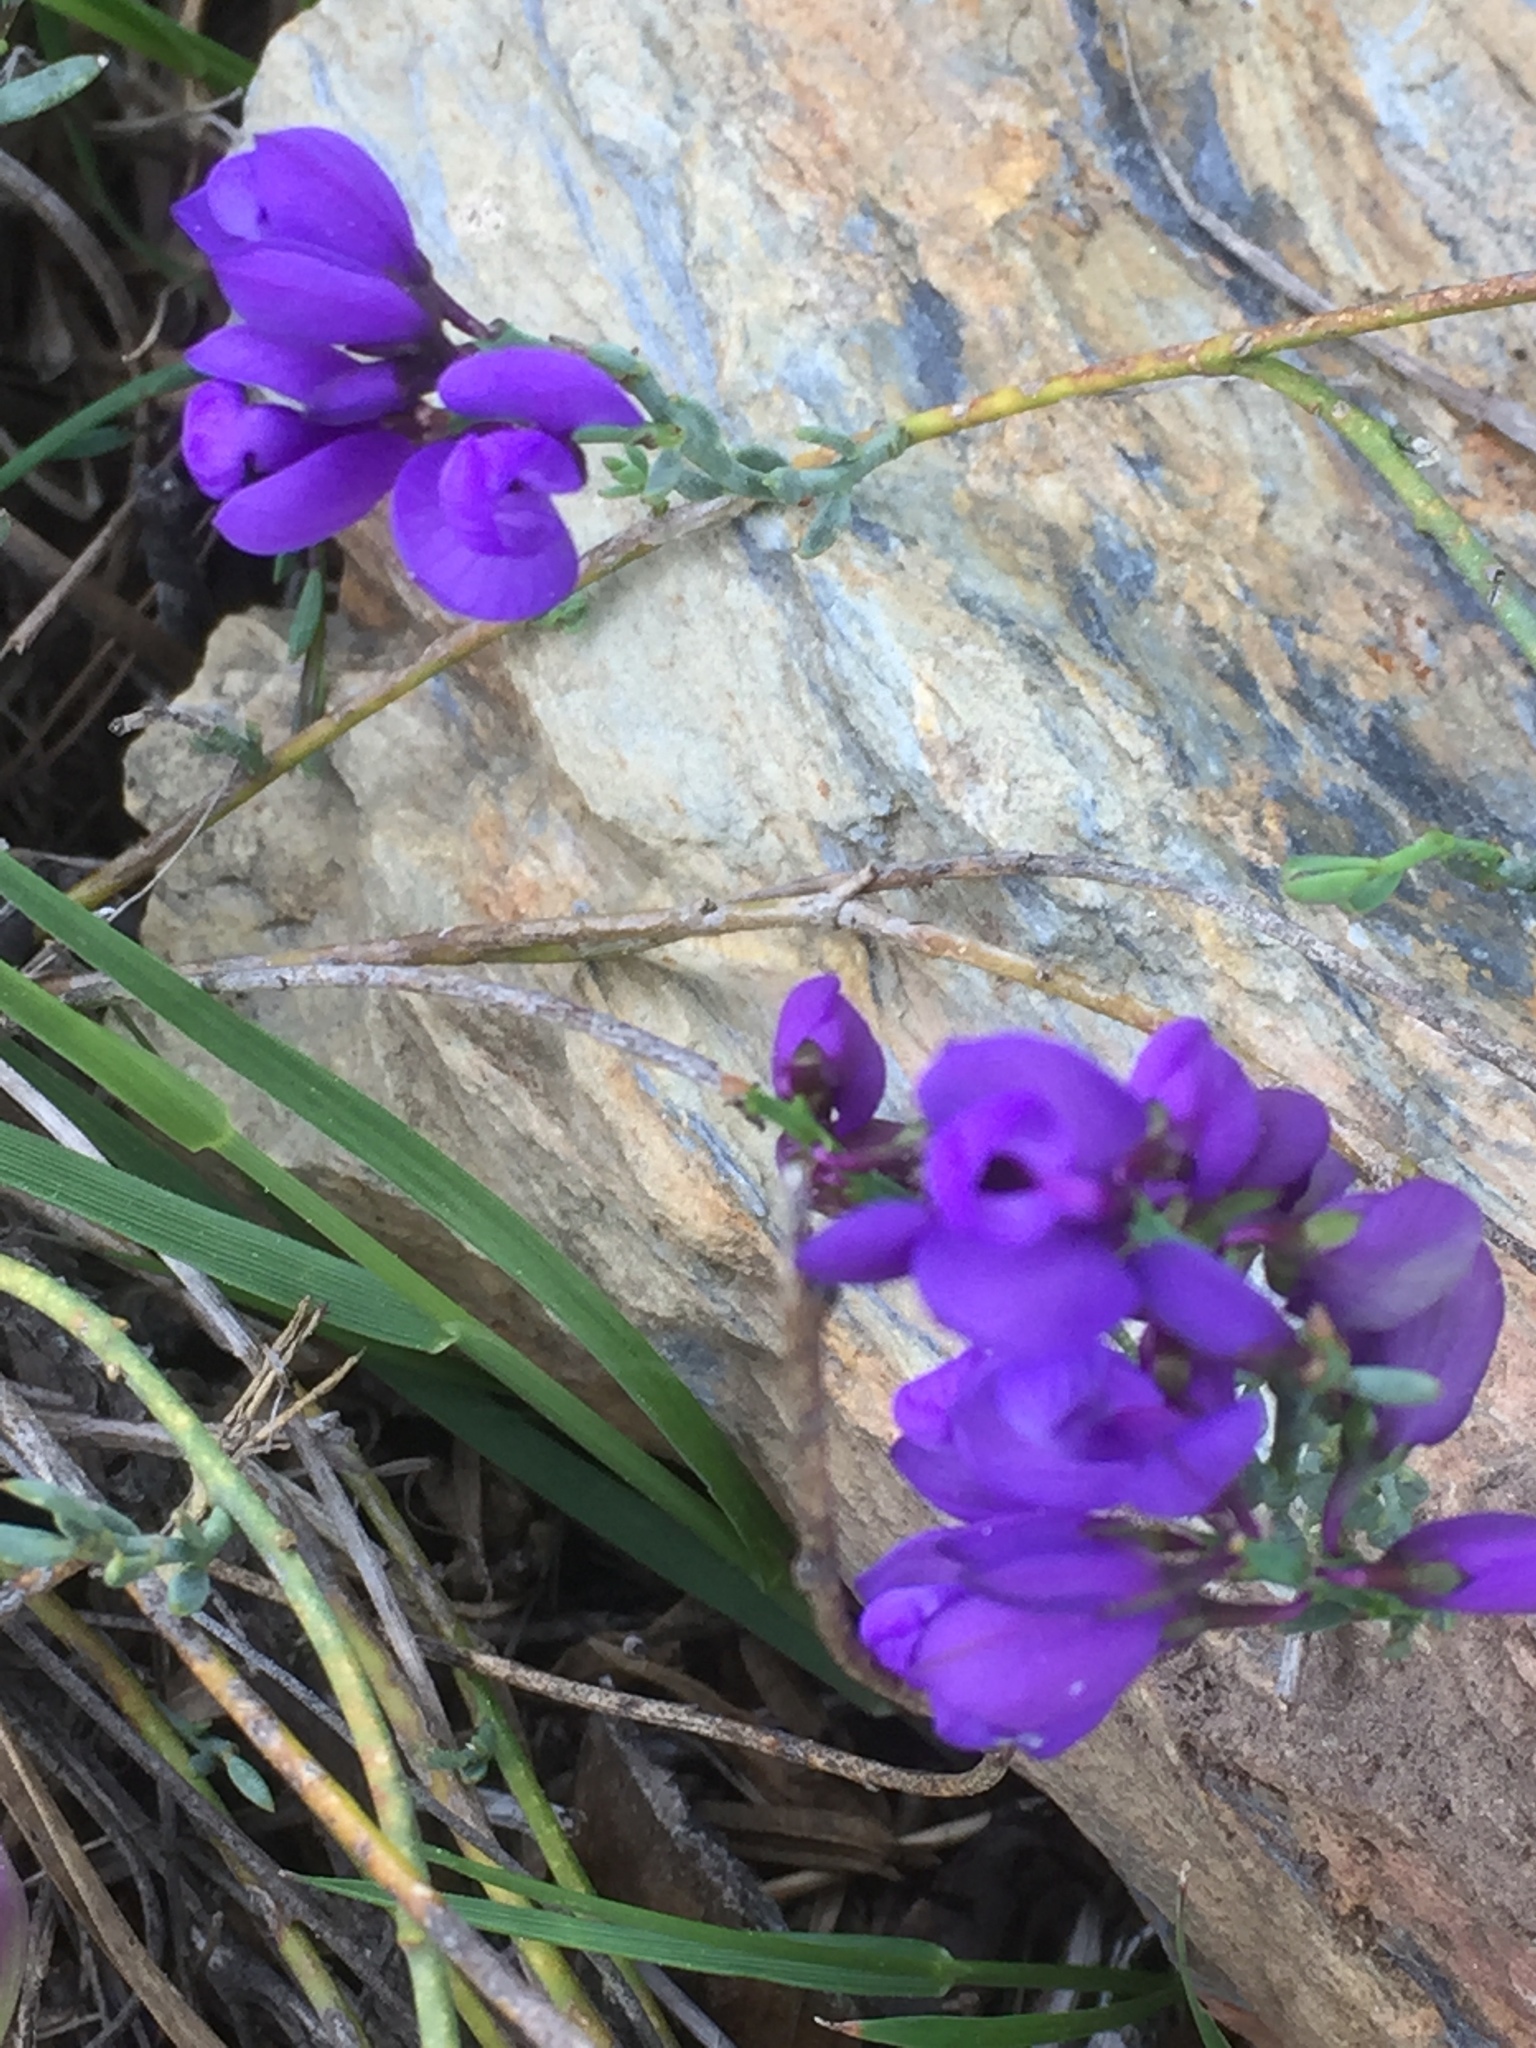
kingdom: Plantae
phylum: Tracheophyta
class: Magnoliopsida
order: Fabales
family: Polygalaceae
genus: Polygala
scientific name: Polygala microphylla
